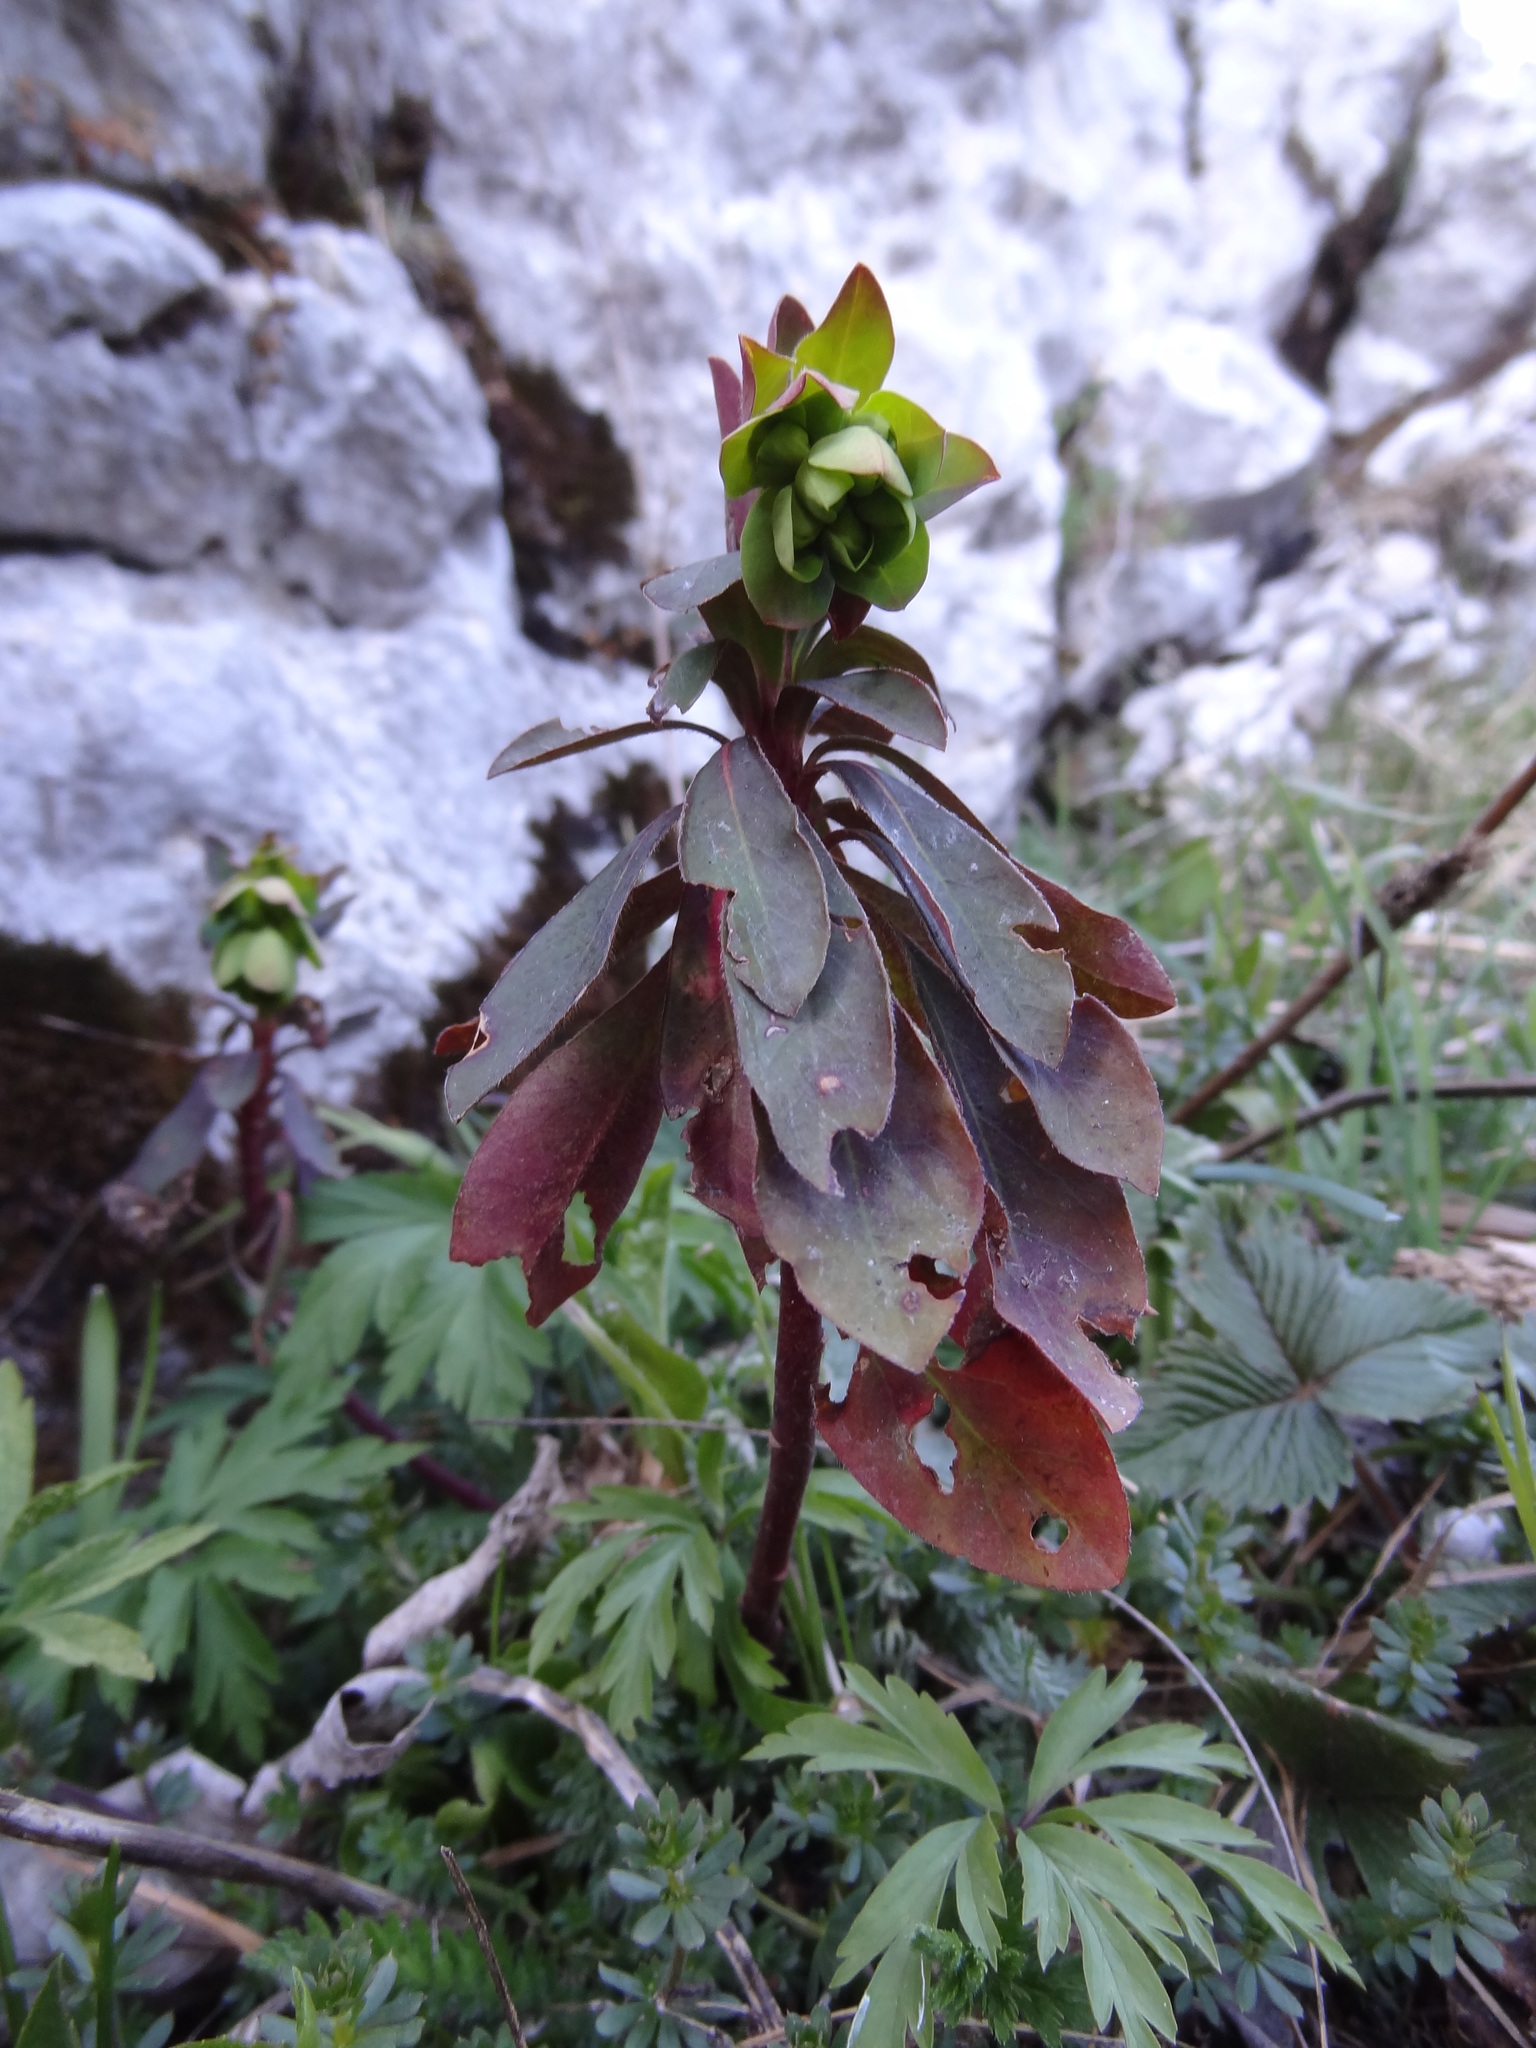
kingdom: Plantae
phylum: Tracheophyta
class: Magnoliopsida
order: Malpighiales
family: Euphorbiaceae
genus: Euphorbia
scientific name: Euphorbia amygdaloides
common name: Wood spurge
